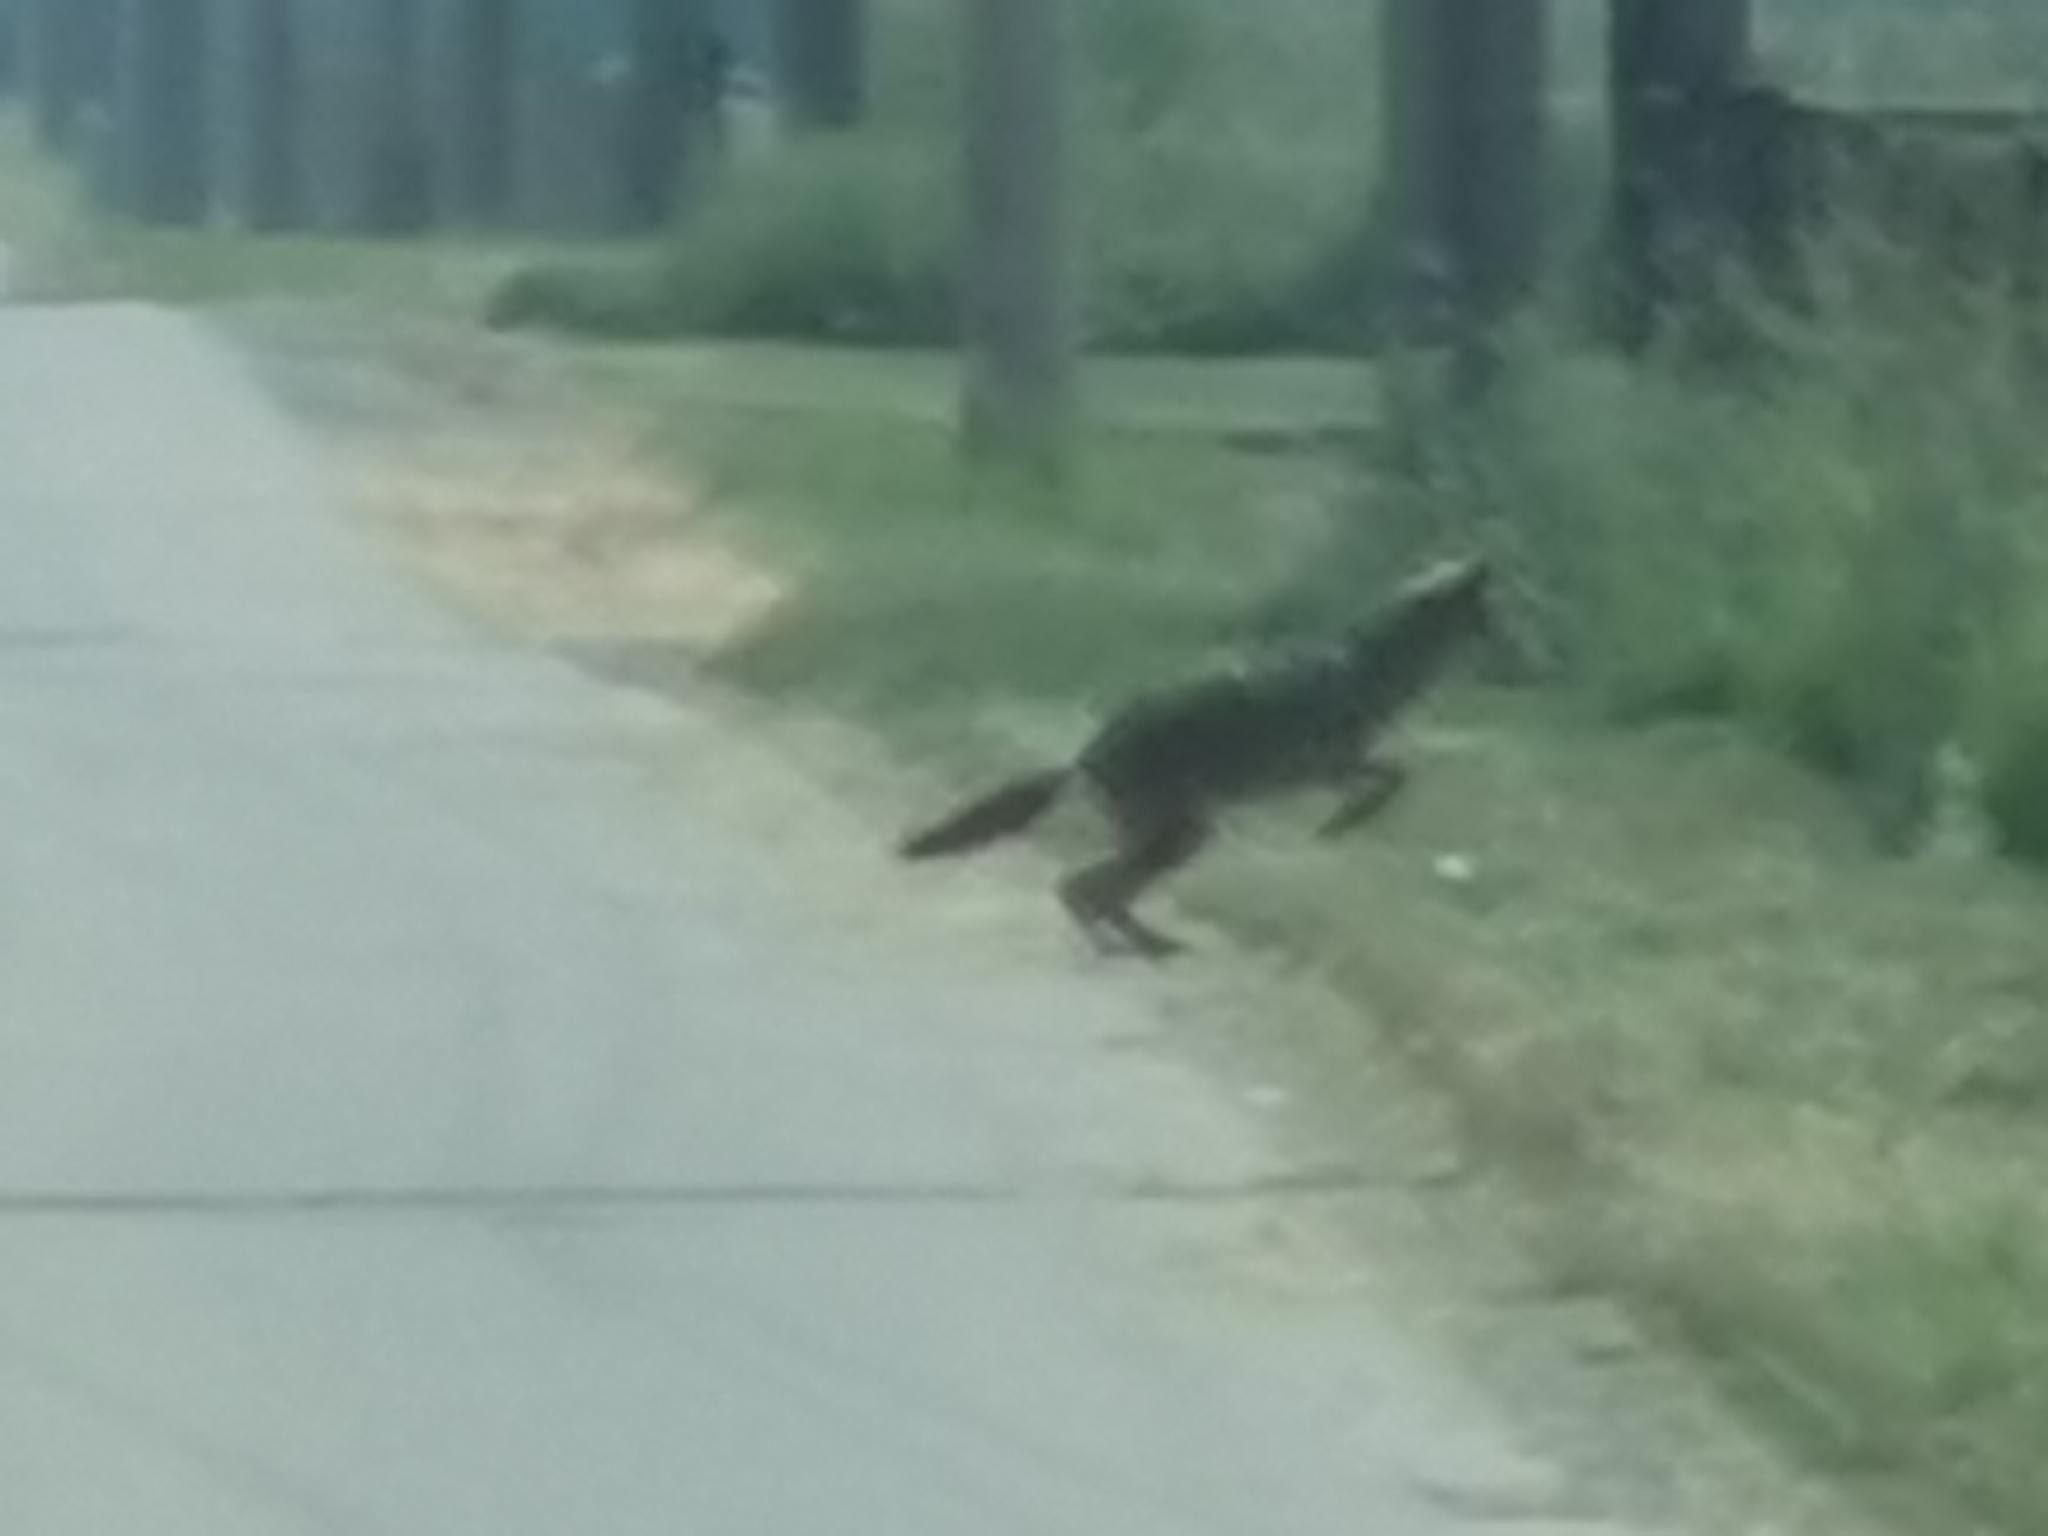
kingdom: Animalia
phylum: Chordata
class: Mammalia
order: Carnivora
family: Canidae
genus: Canis
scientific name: Canis latrans
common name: Coyote
